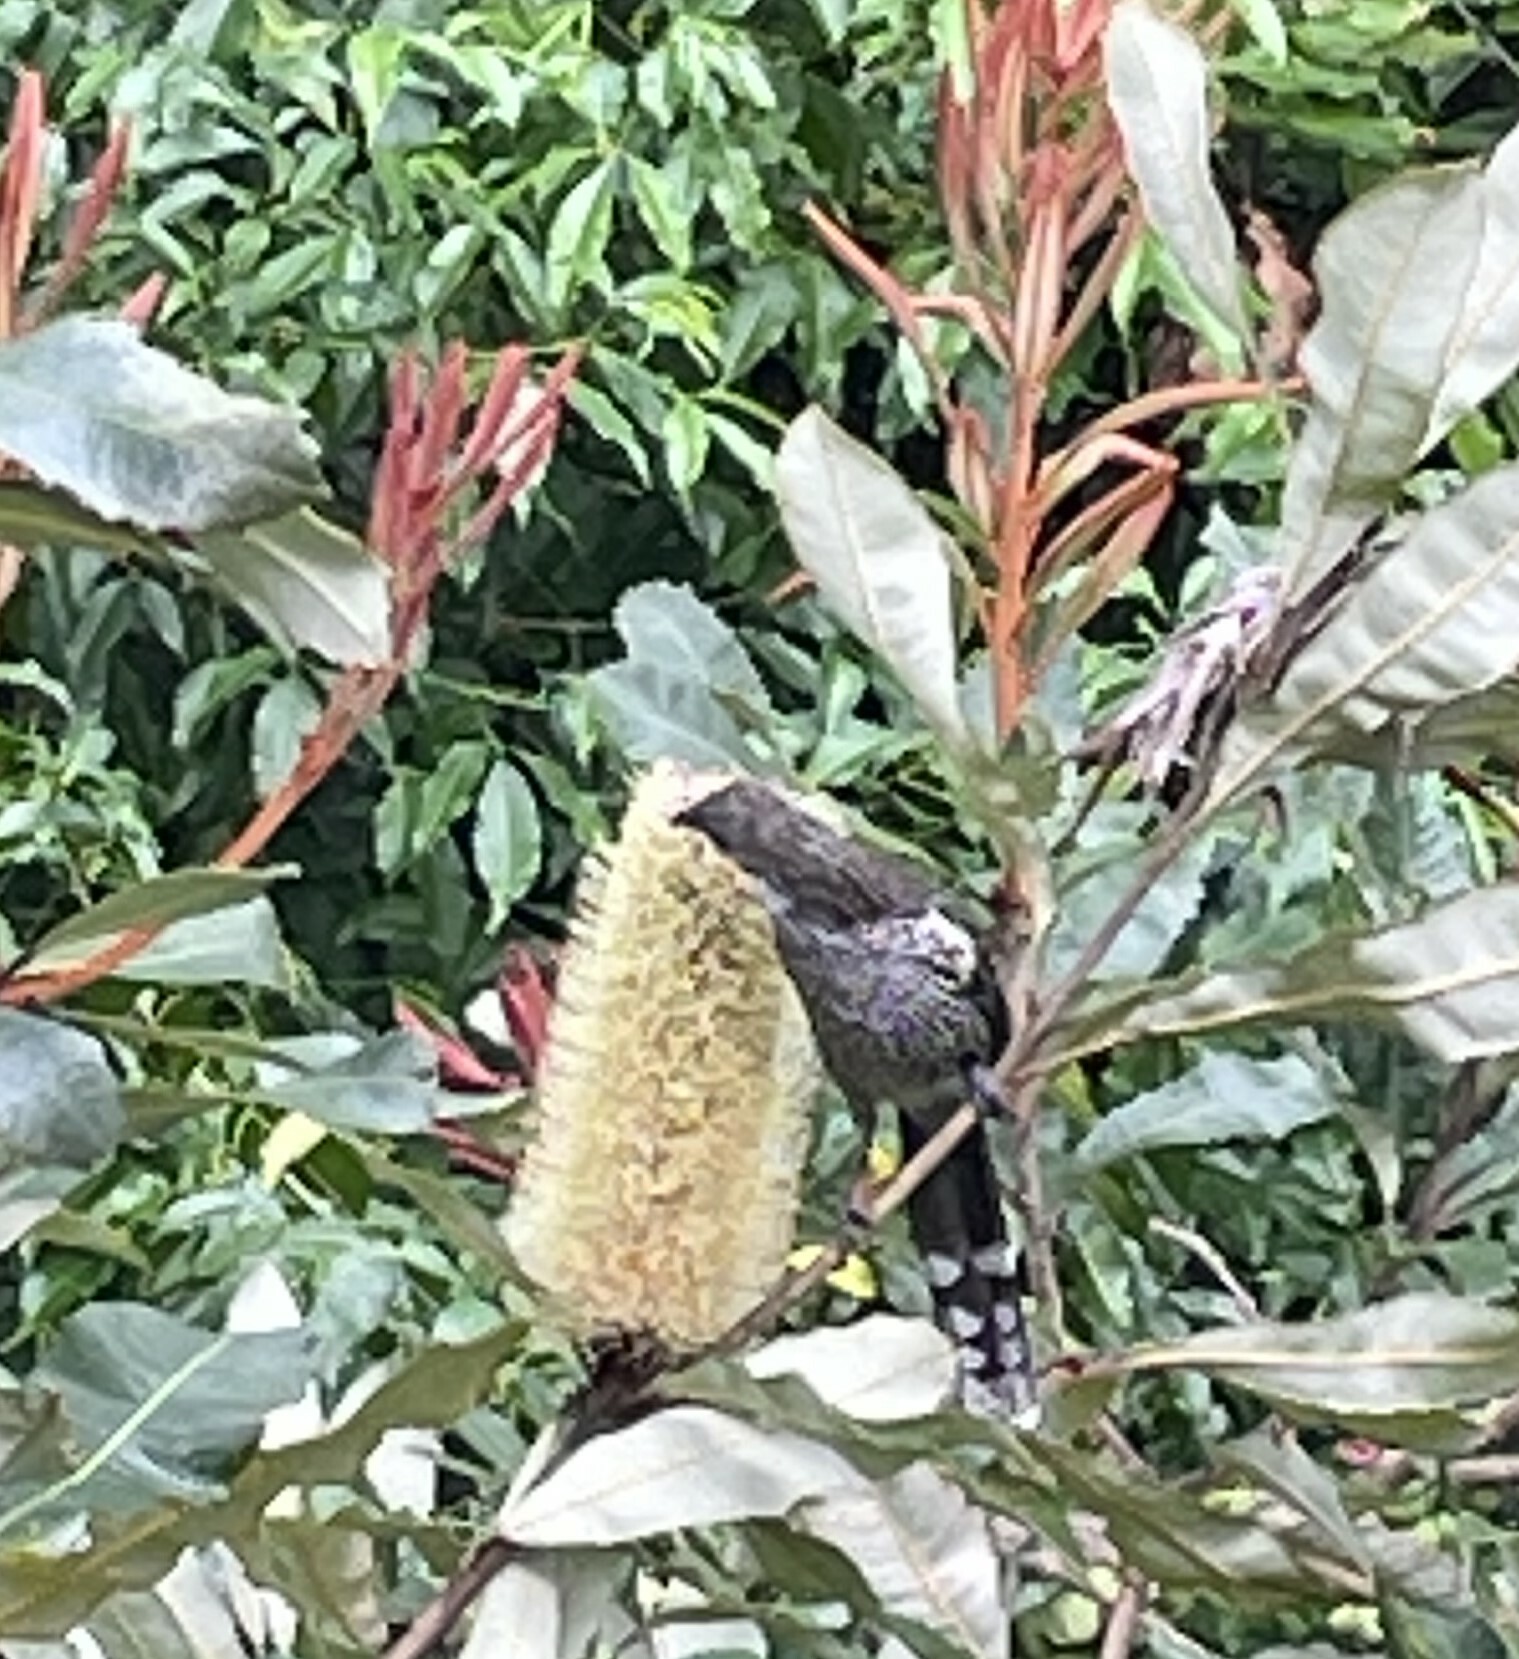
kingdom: Animalia
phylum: Chordata
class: Aves
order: Passeriformes
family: Meliphagidae
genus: Anthochaera
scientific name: Anthochaera chrysoptera
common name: Little wattlebird
